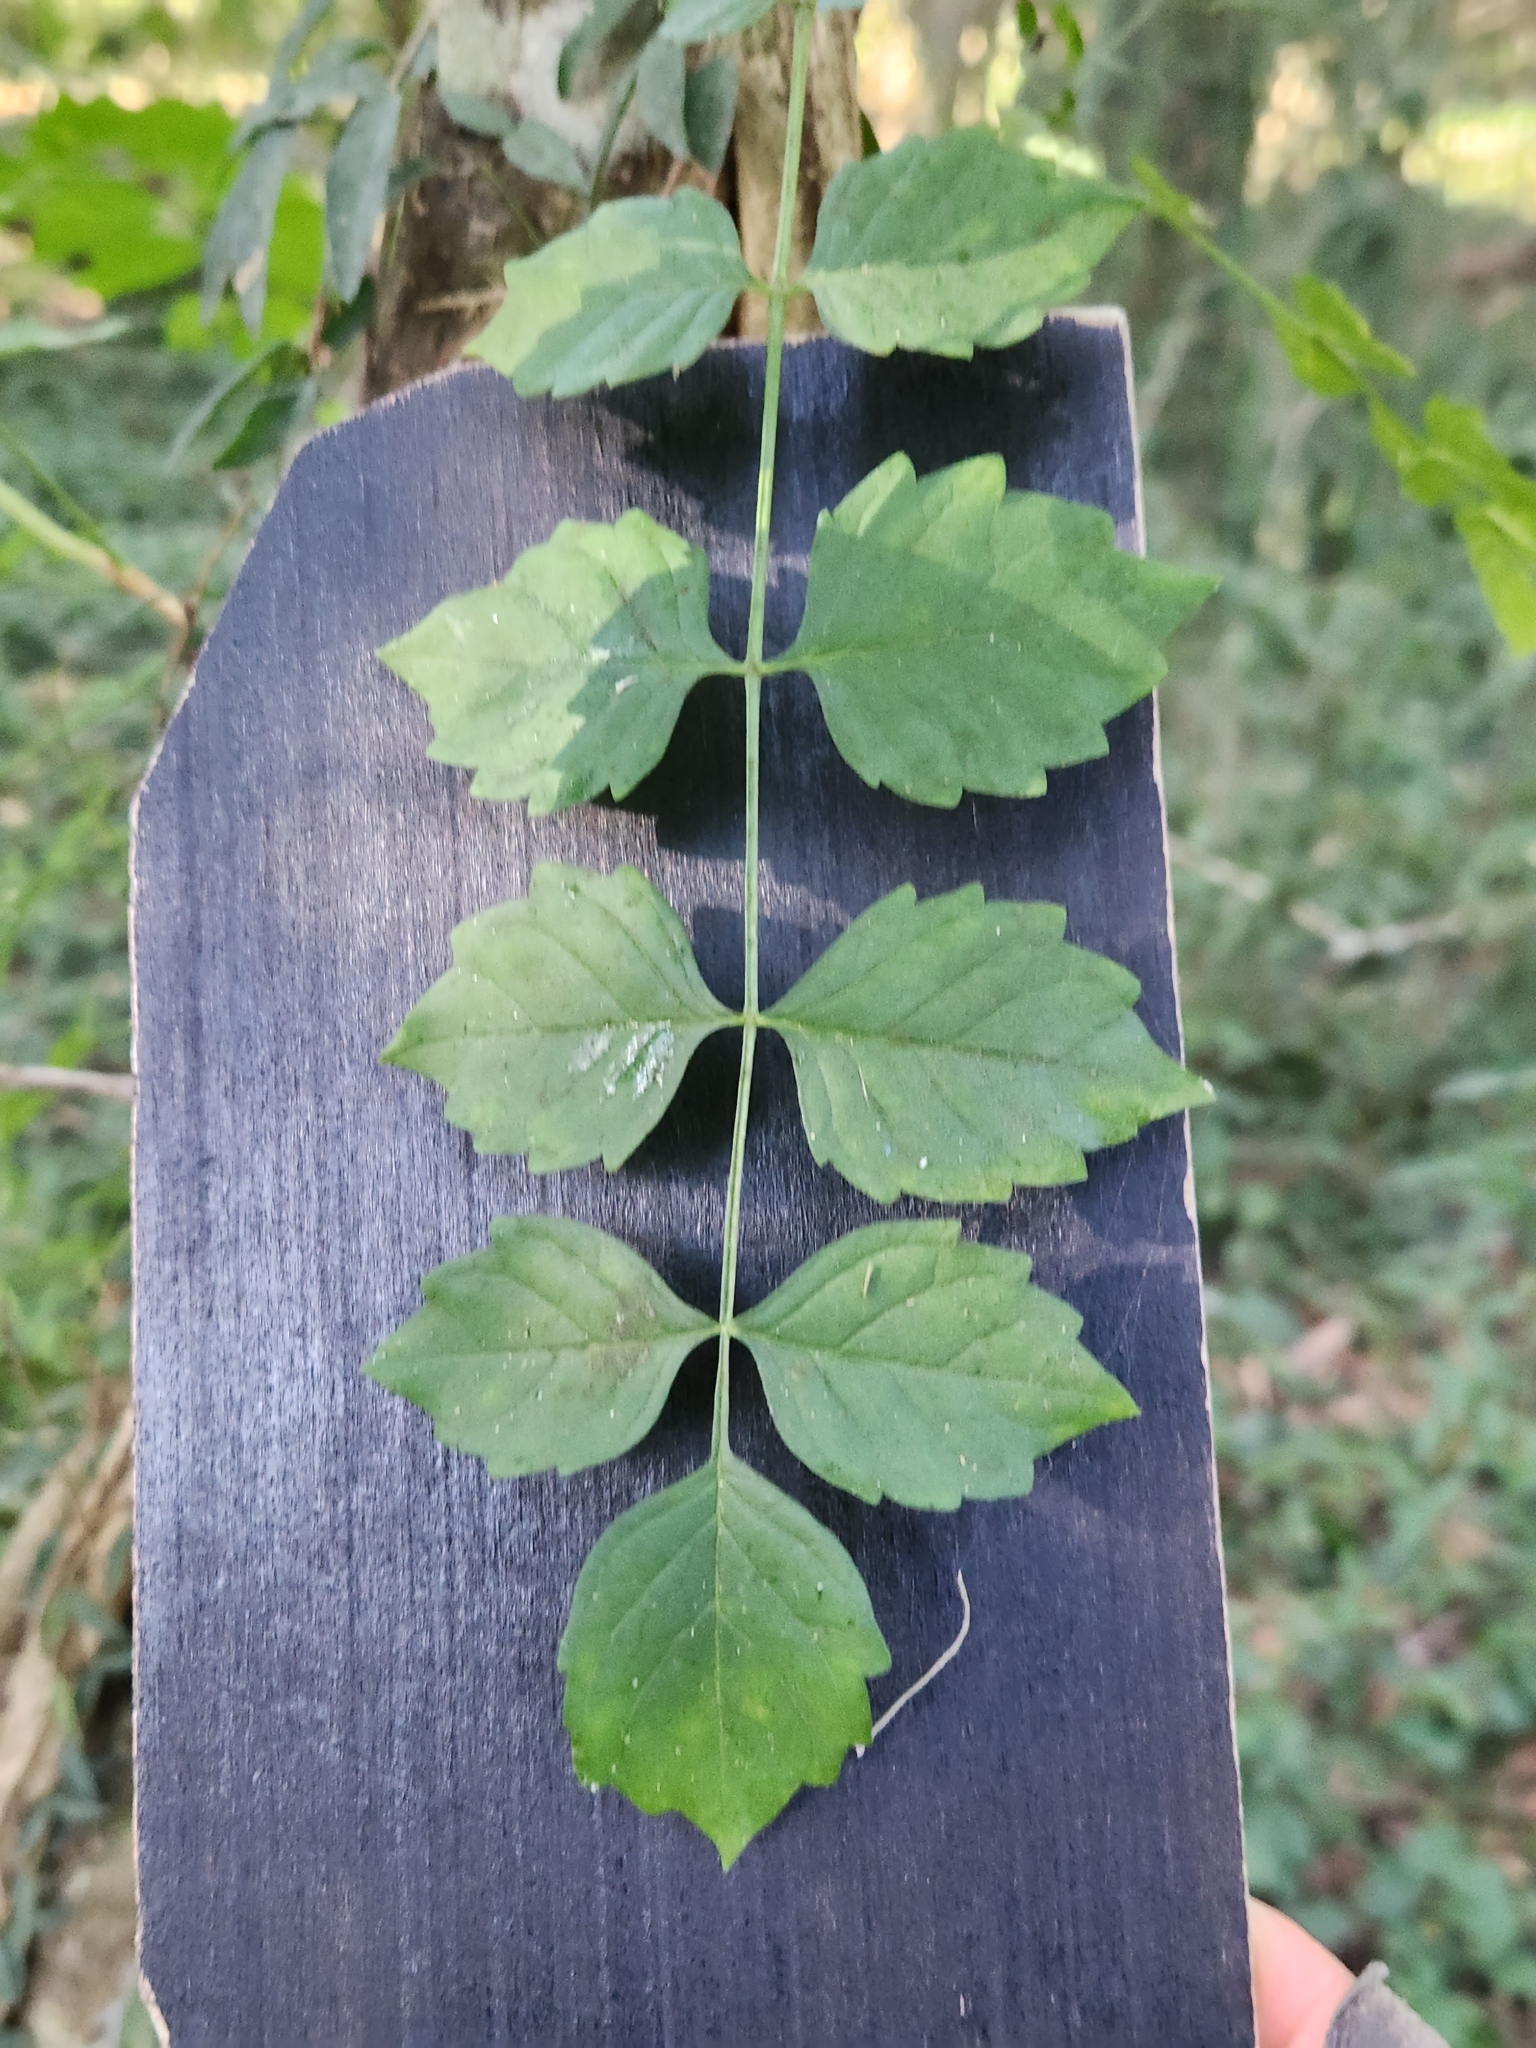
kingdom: Plantae
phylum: Tracheophyta
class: Magnoliopsida
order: Lamiales
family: Bignoniaceae
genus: Campsis
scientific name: Campsis radicans
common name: Trumpet-creeper
